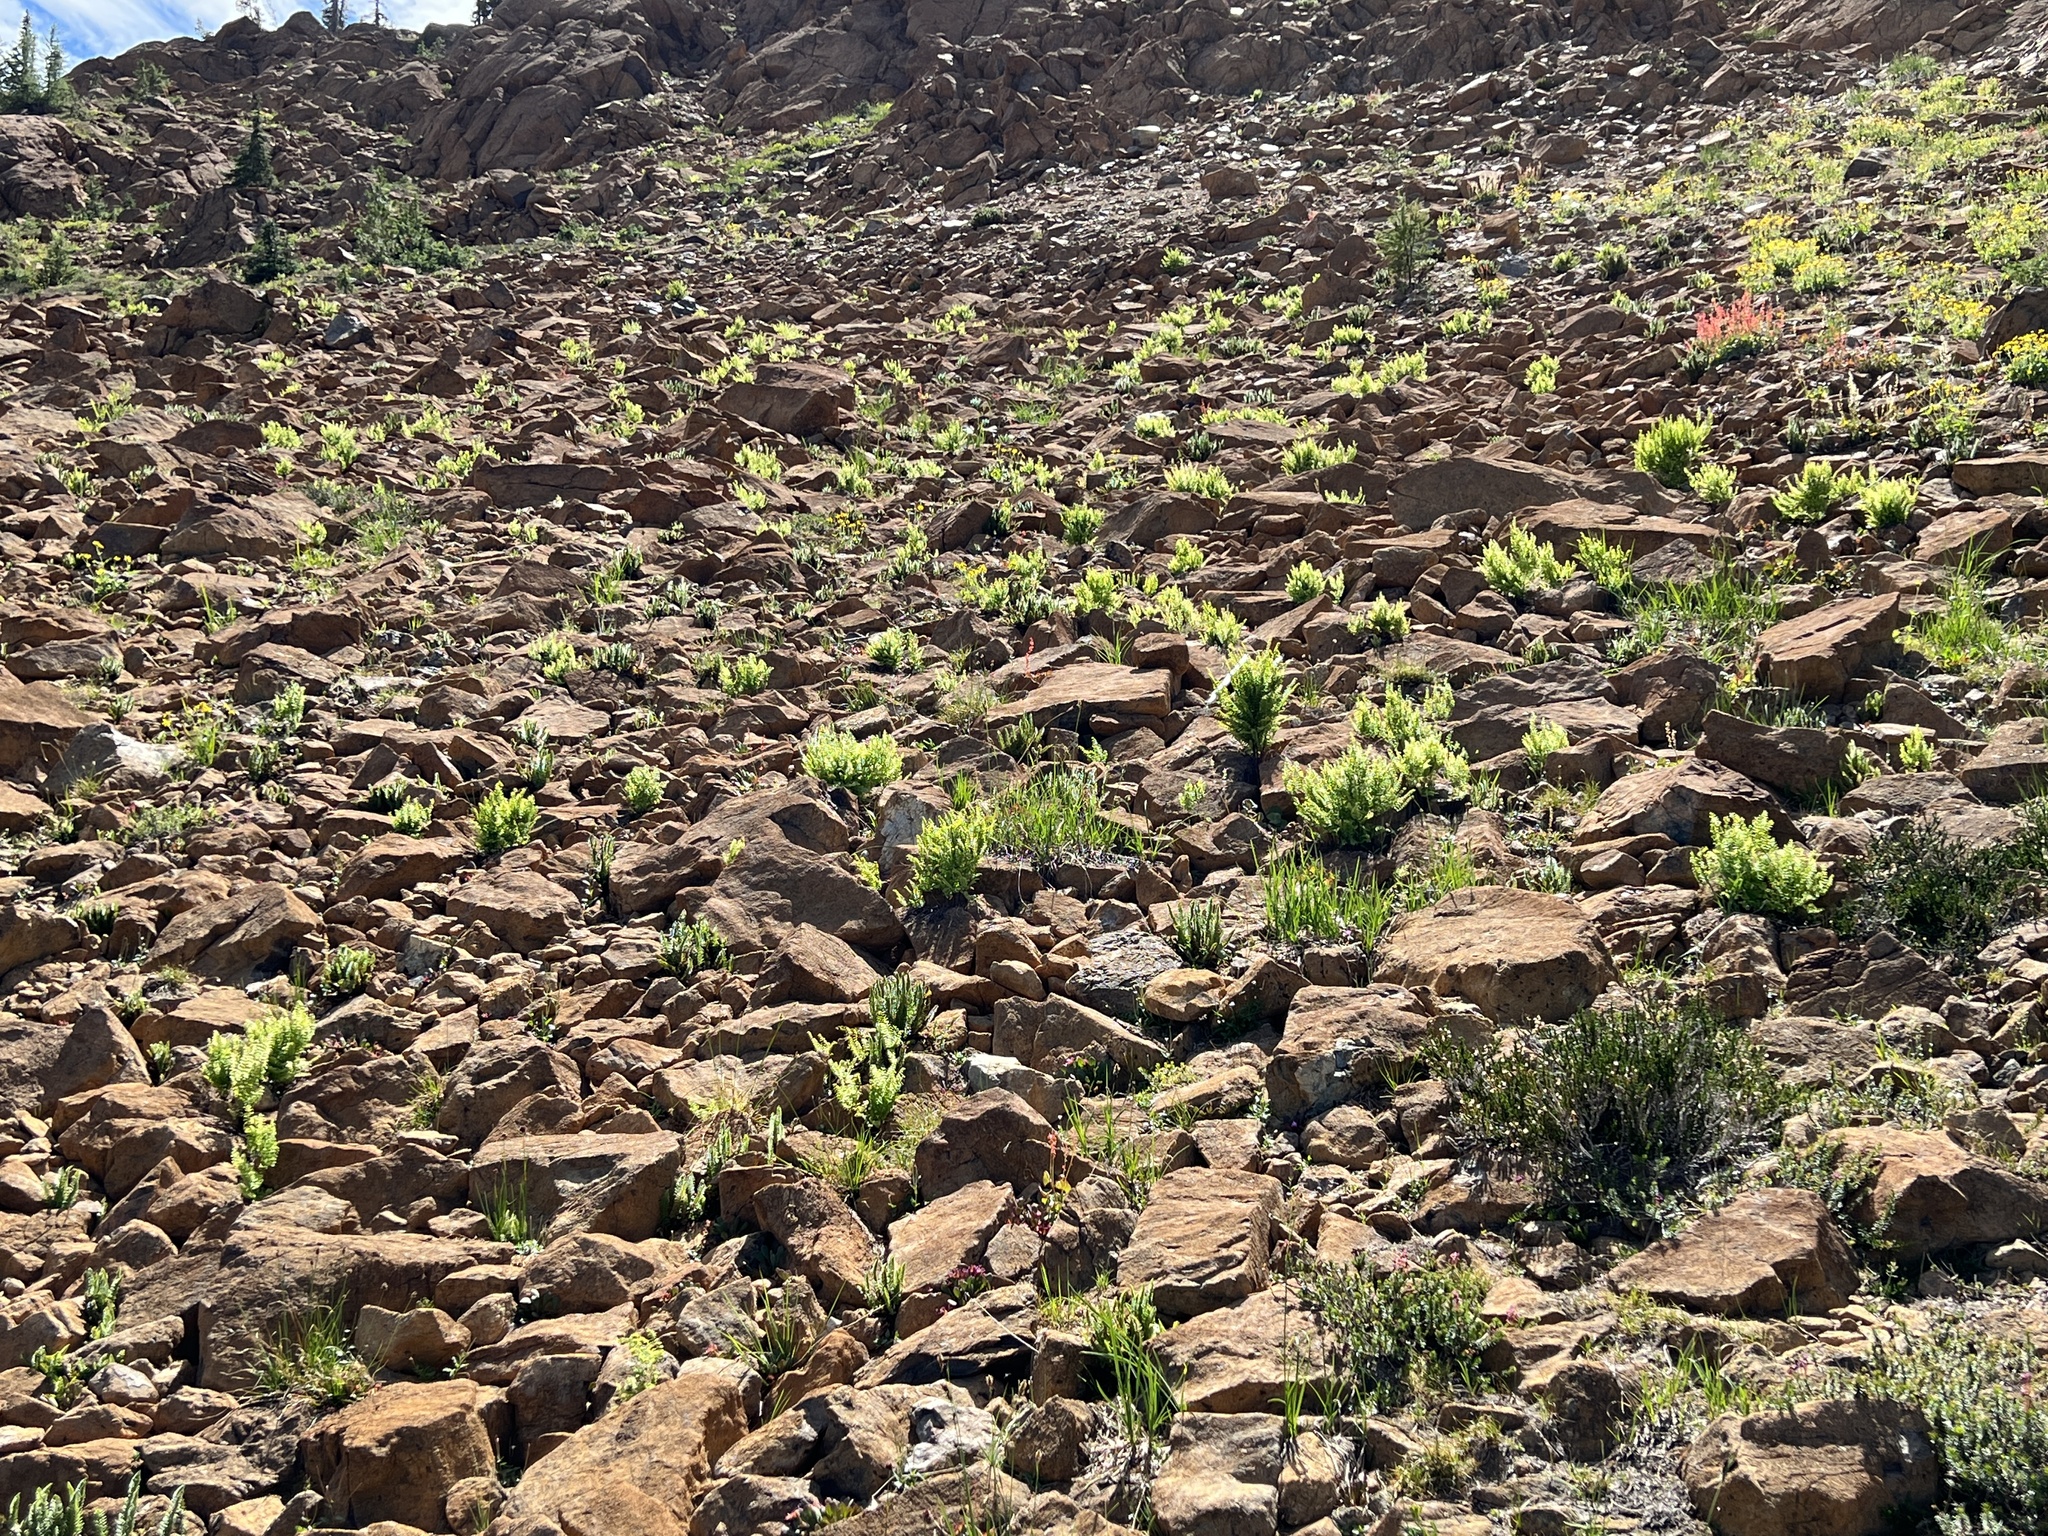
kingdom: Plantae
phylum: Tracheophyta
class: Polypodiopsida
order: Polypodiales
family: Pteridaceae
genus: Adiantum
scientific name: Adiantum aleuticum
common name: Aleutian maidenhair fern
